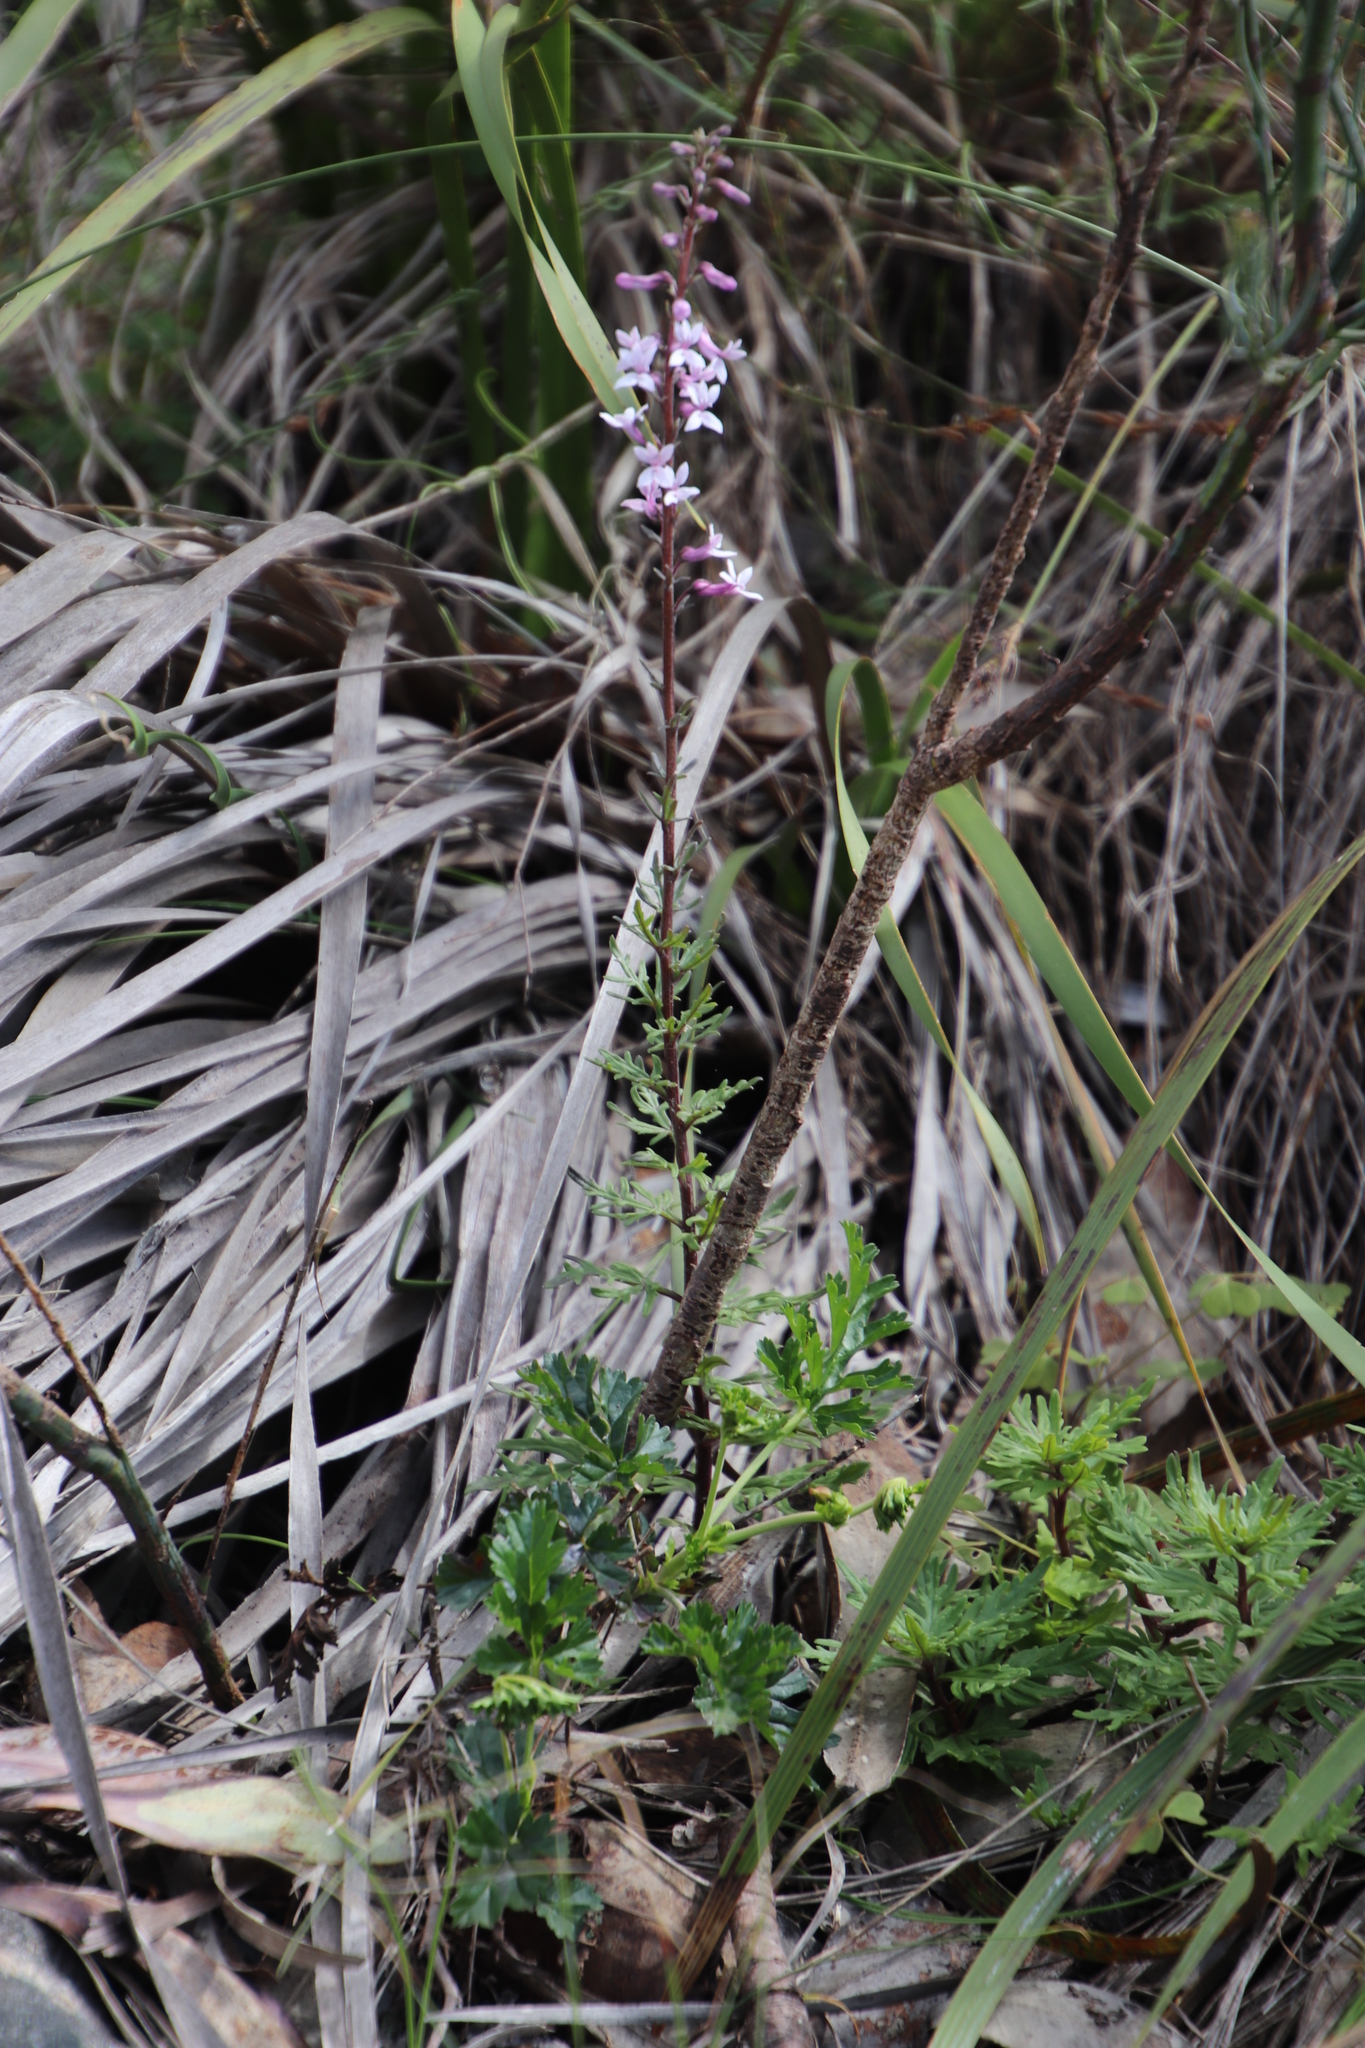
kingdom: Plantae
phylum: Tracheophyta
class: Magnoliopsida
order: Asterales
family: Campanulaceae
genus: Cyphia
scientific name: Cyphia bulbosa
